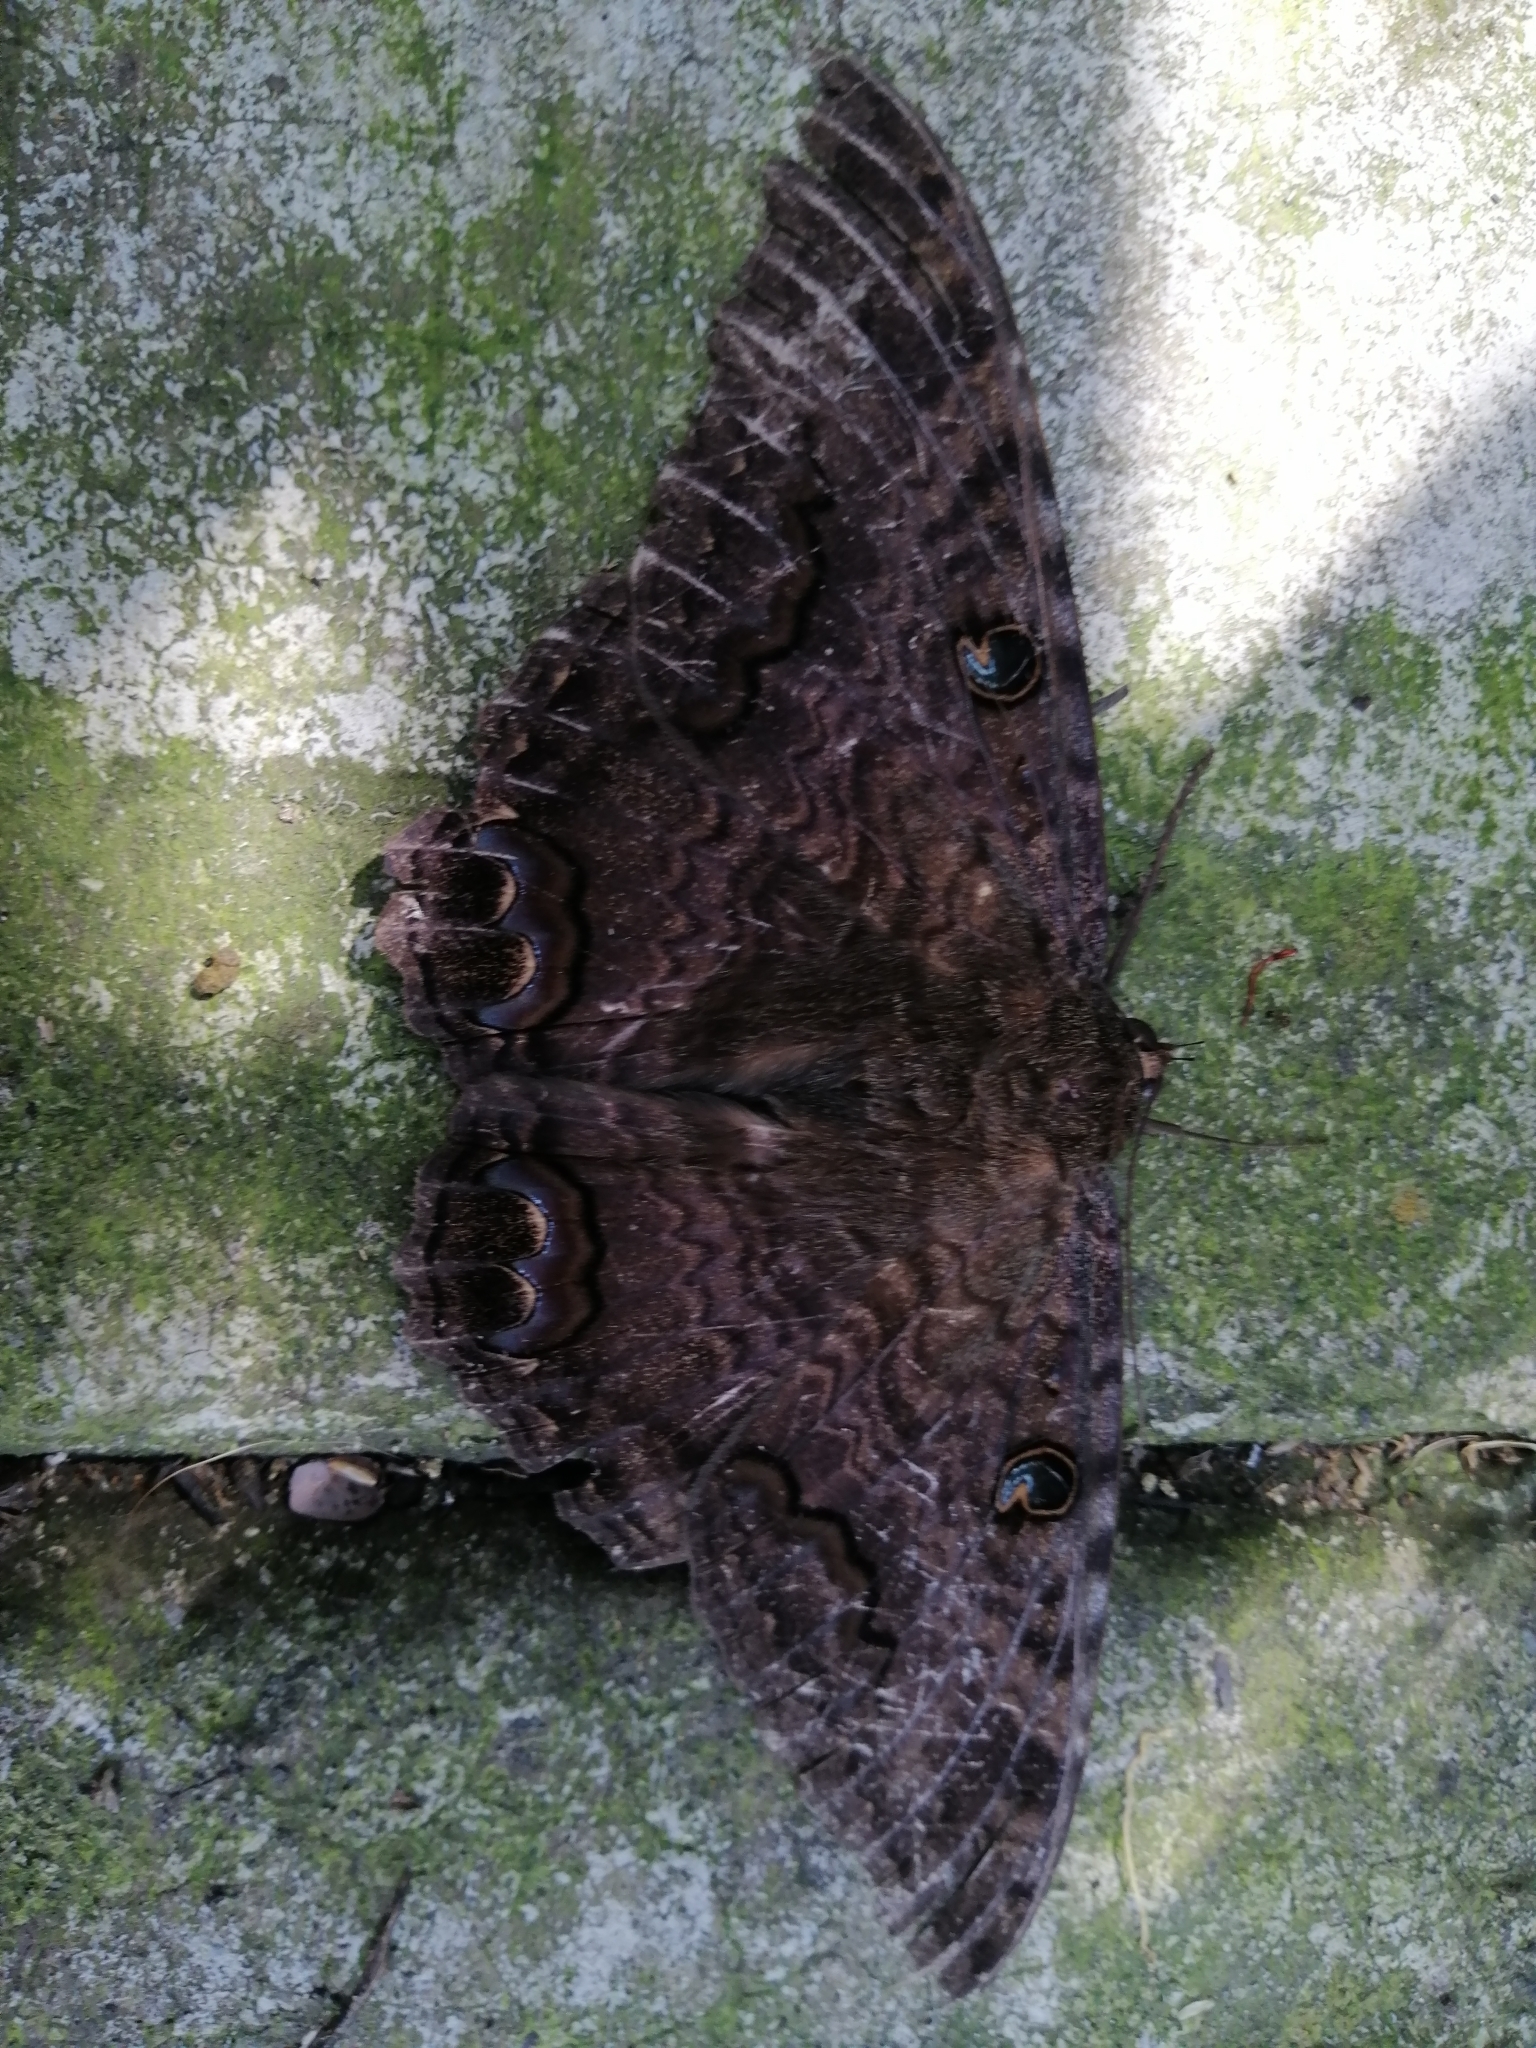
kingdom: Animalia
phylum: Arthropoda
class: Insecta
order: Lepidoptera
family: Erebidae
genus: Ascalapha
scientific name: Ascalapha odorata
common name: Black witch
